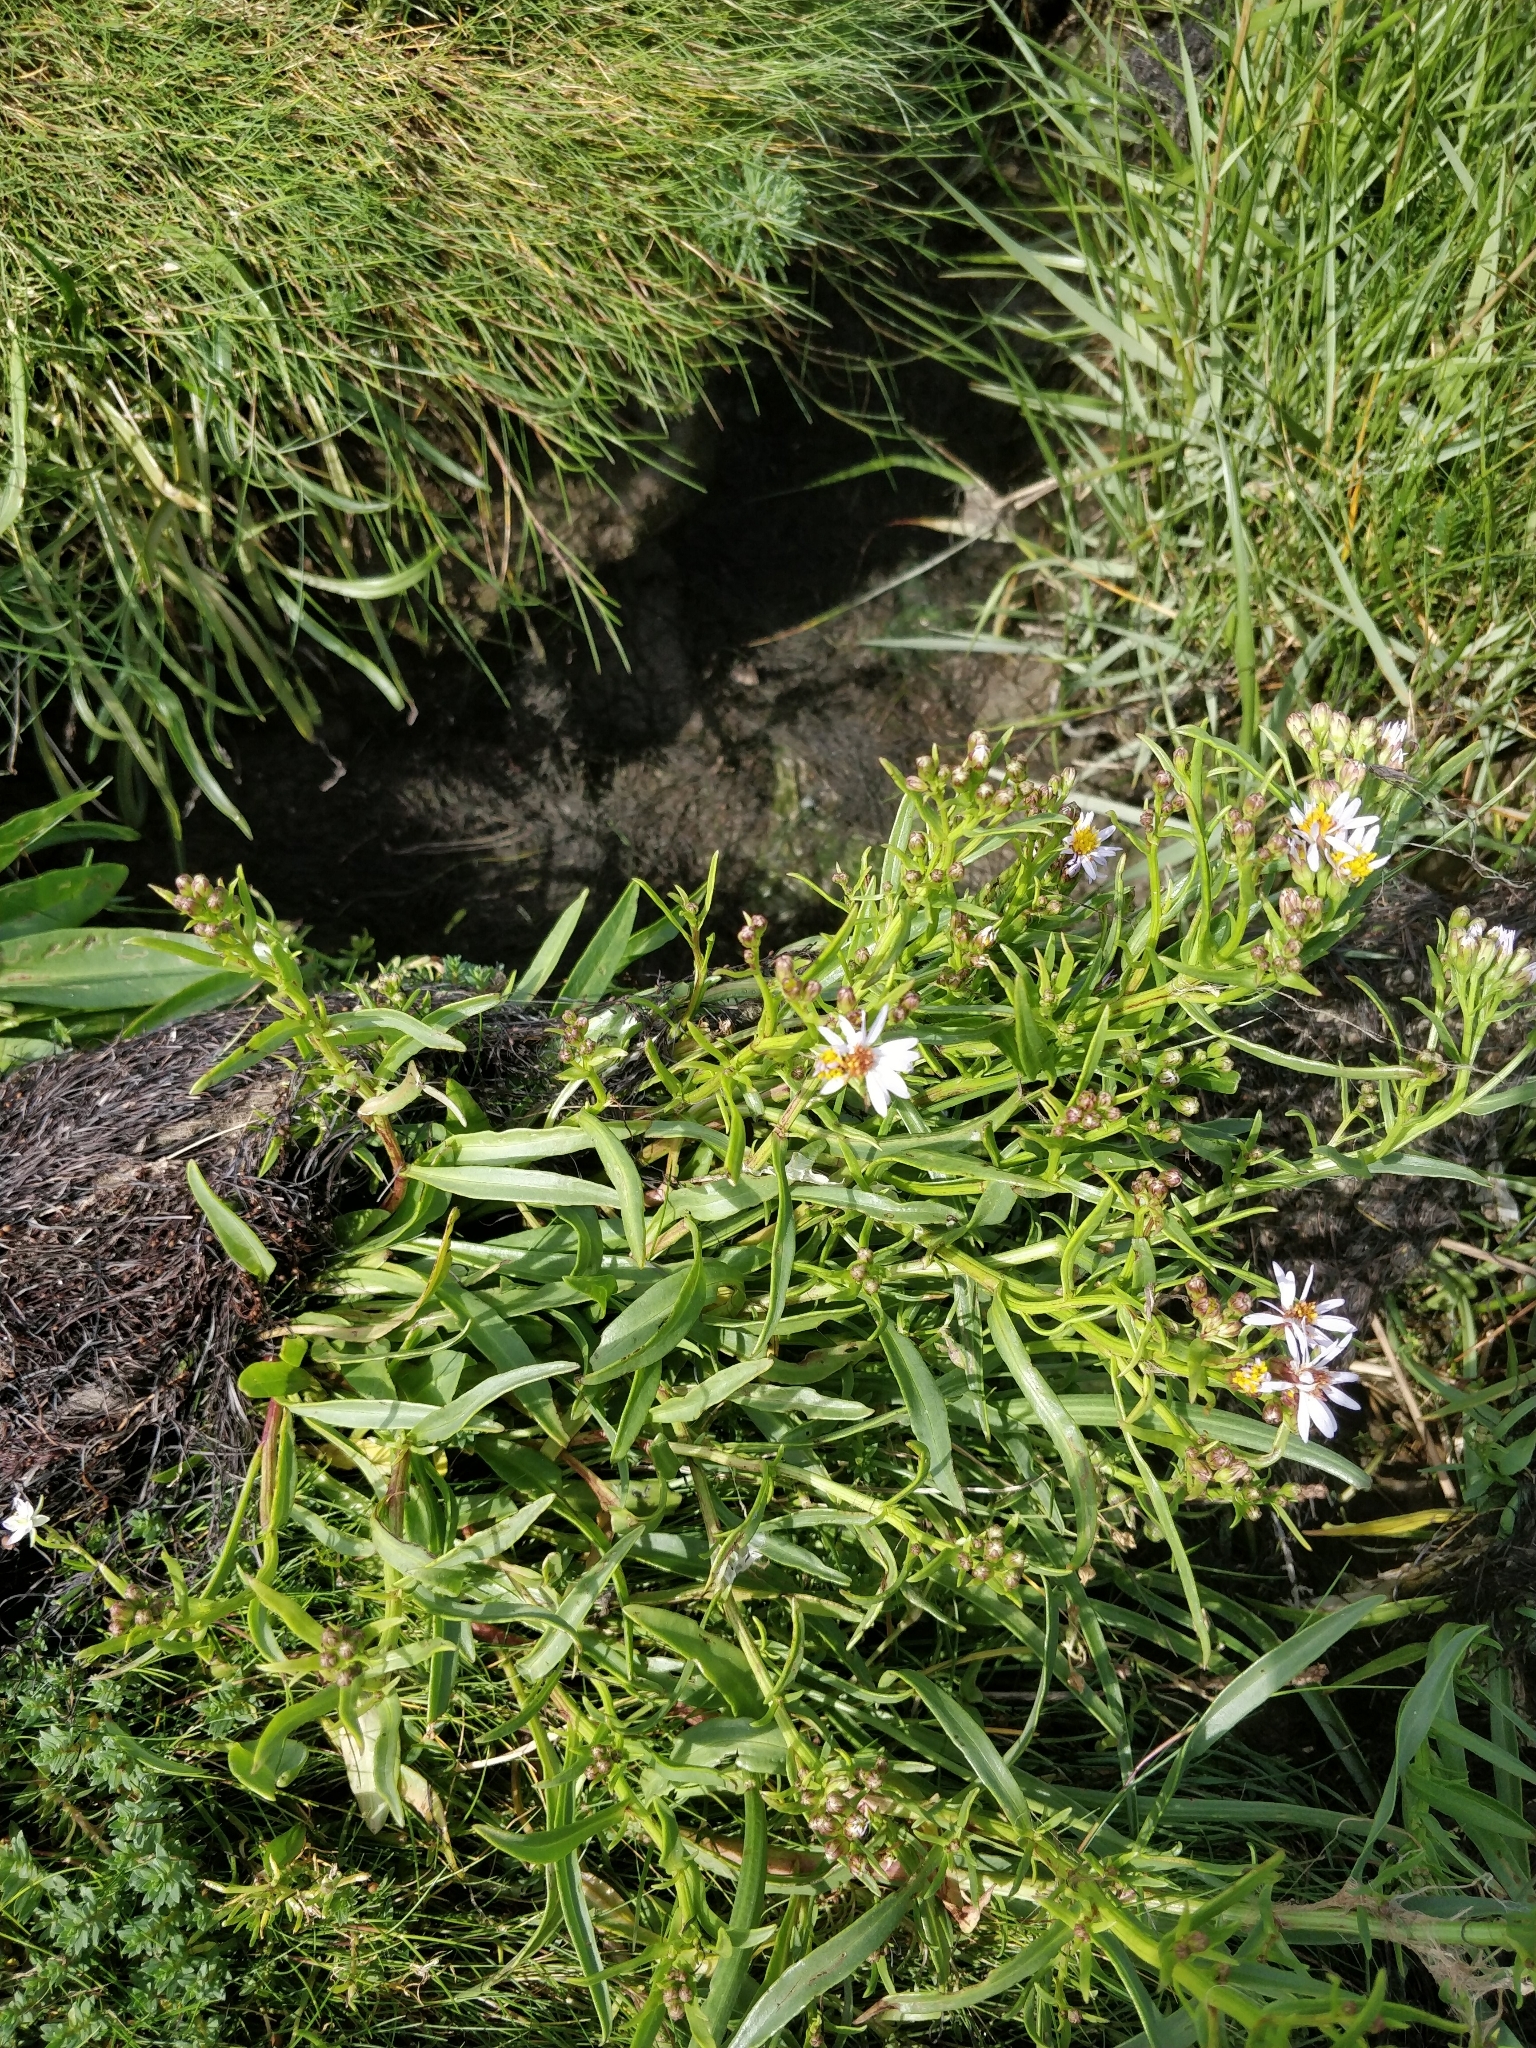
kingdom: Plantae
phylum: Tracheophyta
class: Magnoliopsida
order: Asterales
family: Asteraceae
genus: Tripolium
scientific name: Tripolium pannonicum
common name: Sea aster
